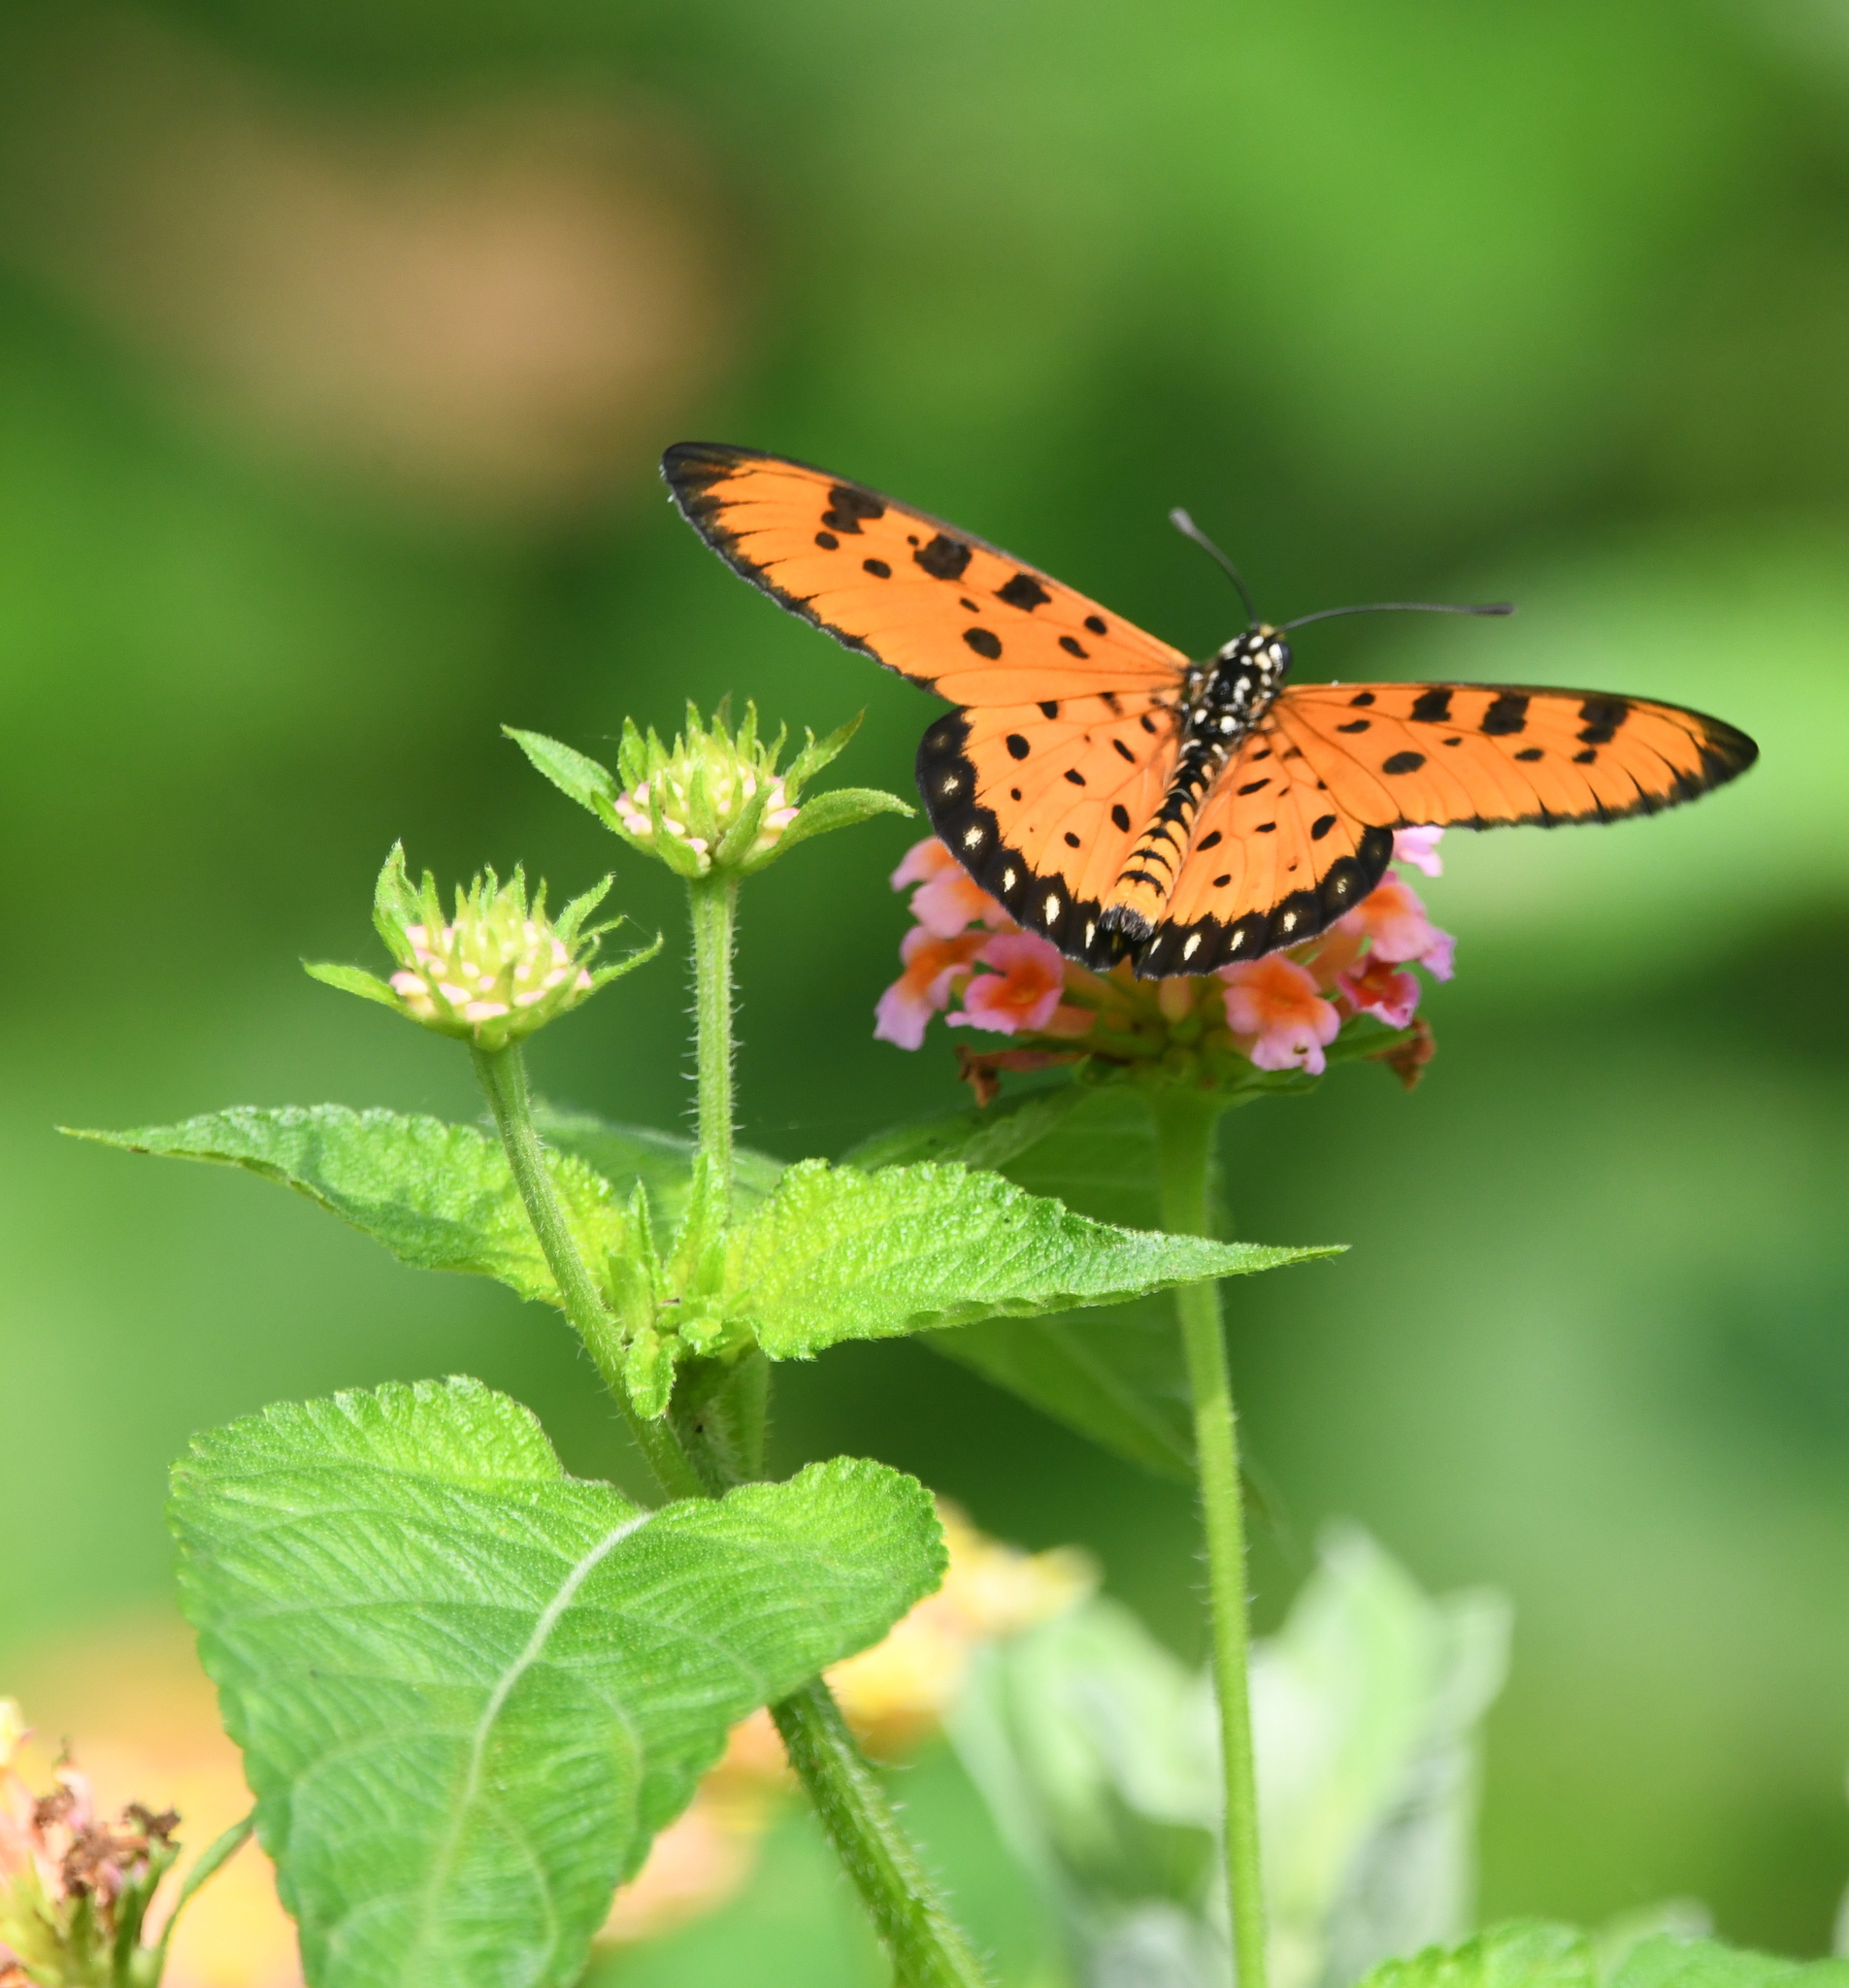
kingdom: Animalia
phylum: Arthropoda
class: Insecta
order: Lepidoptera
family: Nymphalidae
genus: Acraea
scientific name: Acraea terpsicore
